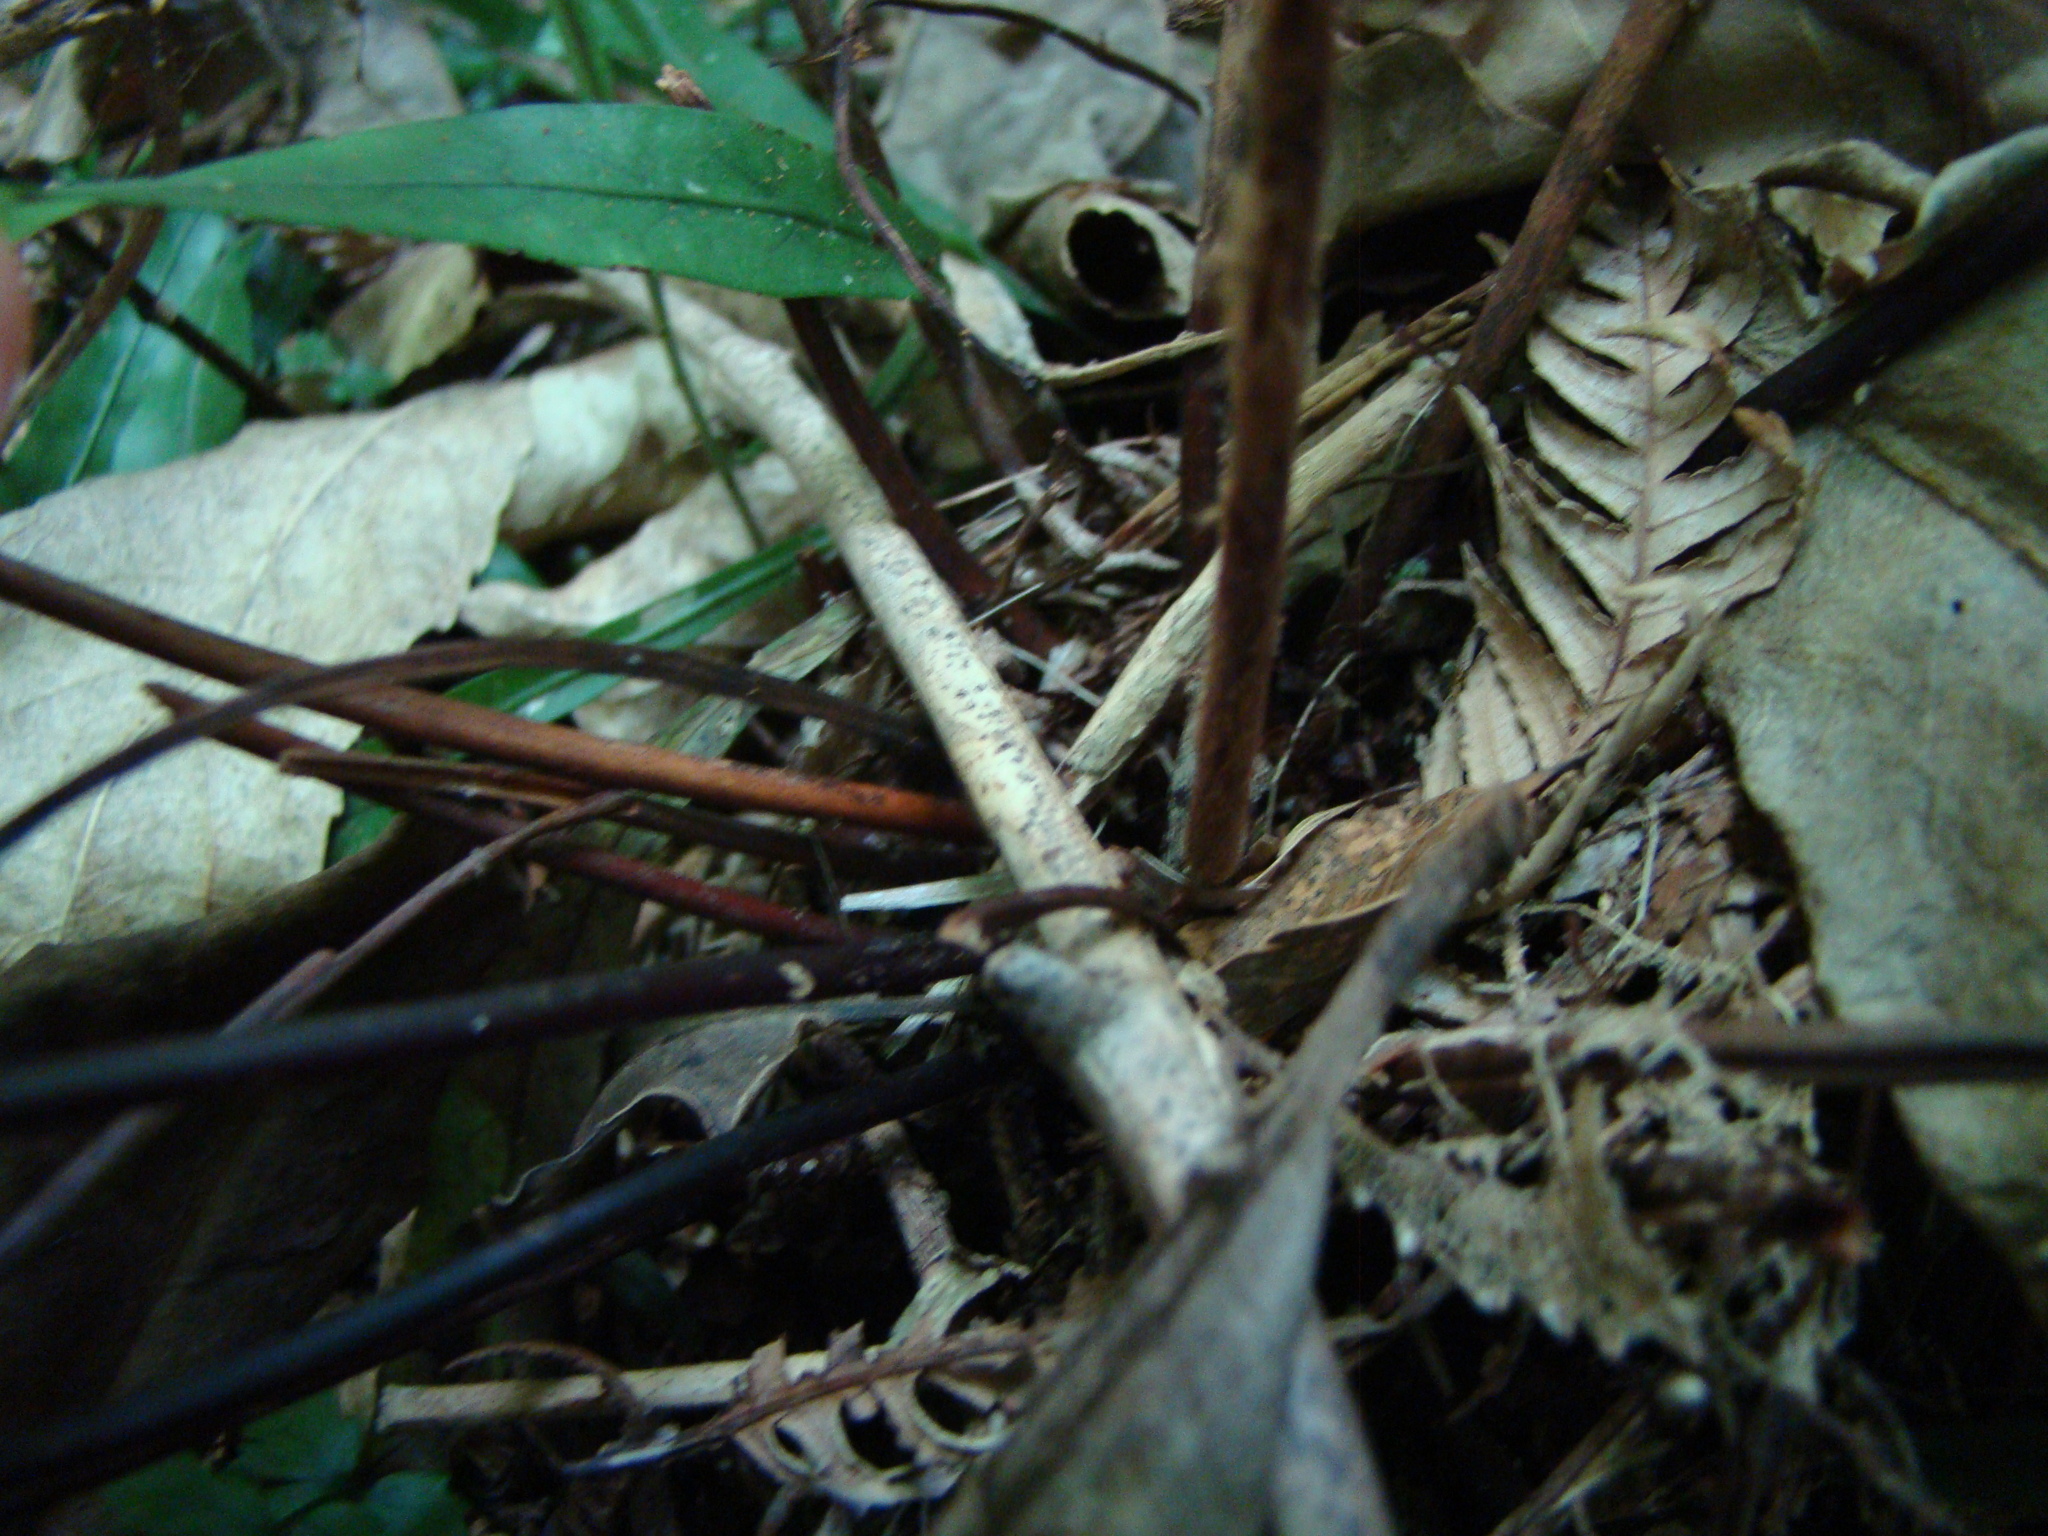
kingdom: Plantae
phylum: Tracheophyta
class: Polypodiopsida
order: Osmundales
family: Osmundaceae
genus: Leptopteris
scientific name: Leptopteris hymenophylloides
